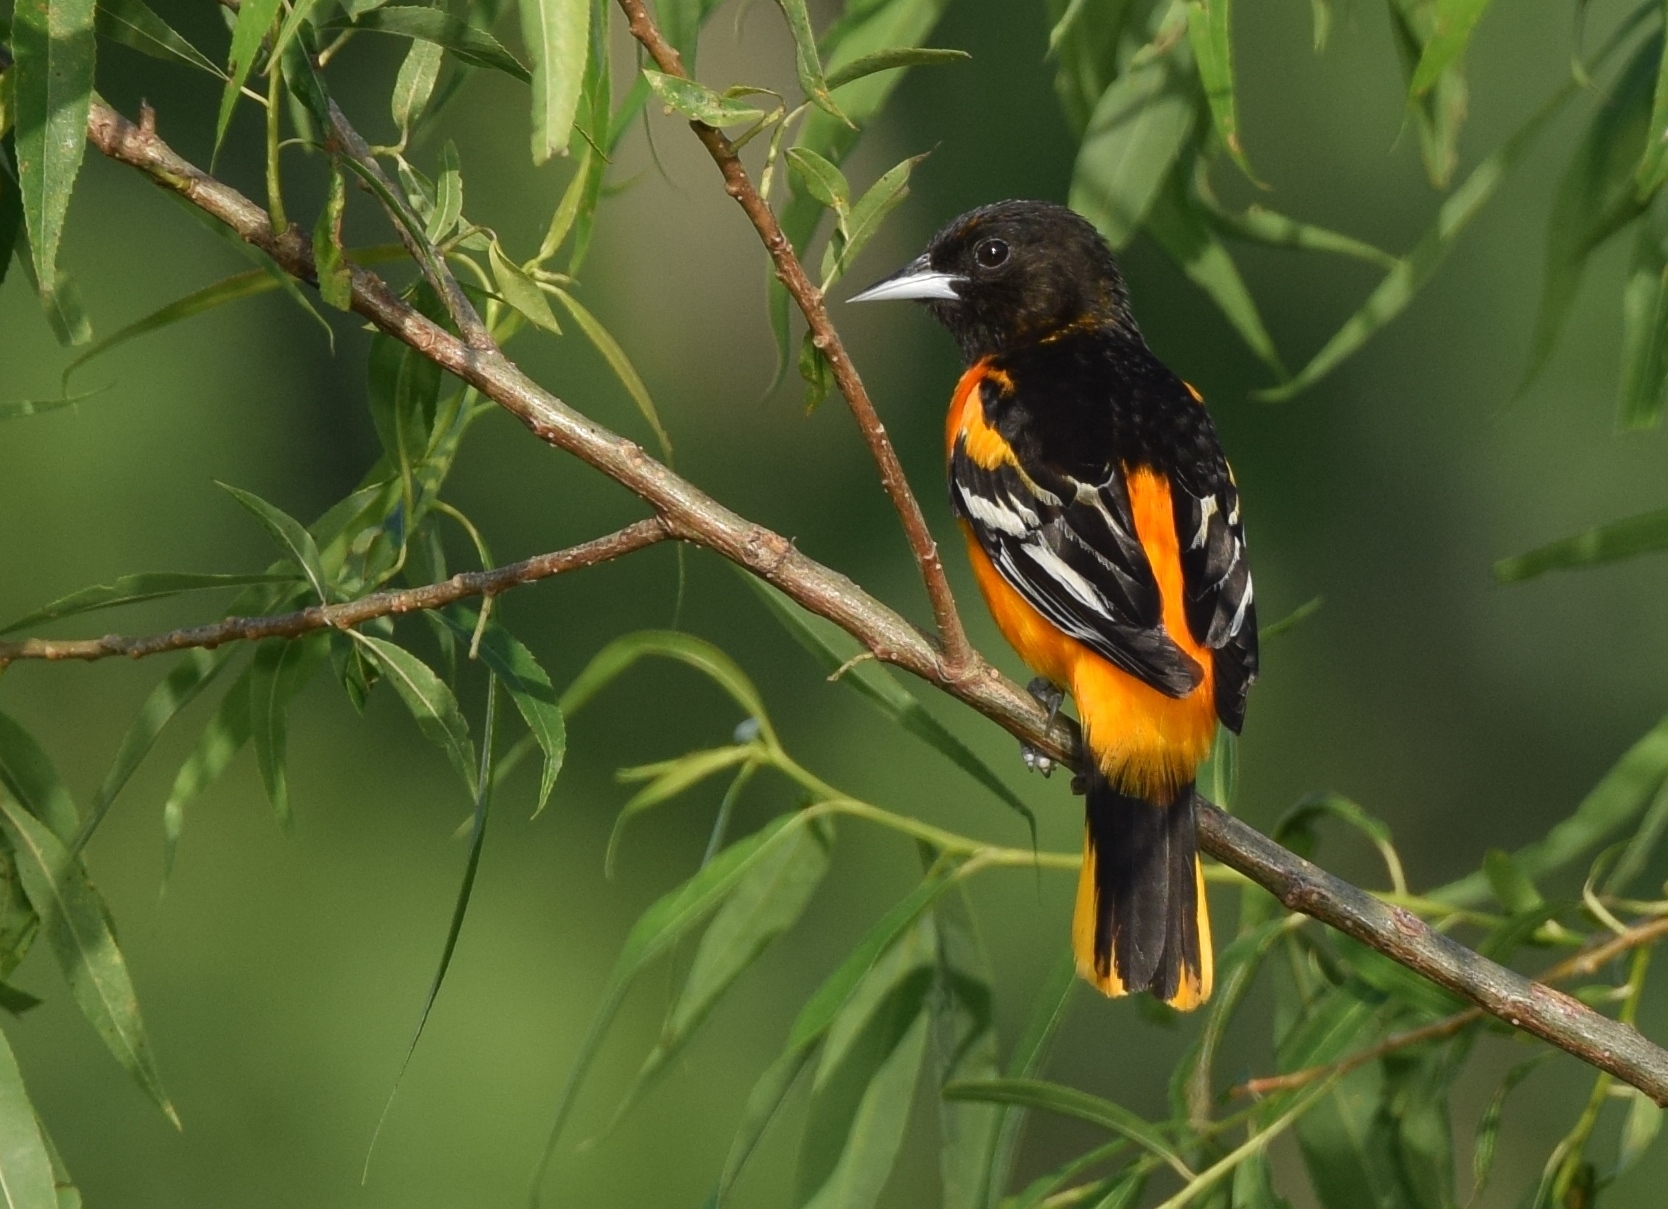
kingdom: Animalia
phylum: Chordata
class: Aves
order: Passeriformes
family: Icteridae
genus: Icterus
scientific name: Icterus galbula
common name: Baltimore oriole
